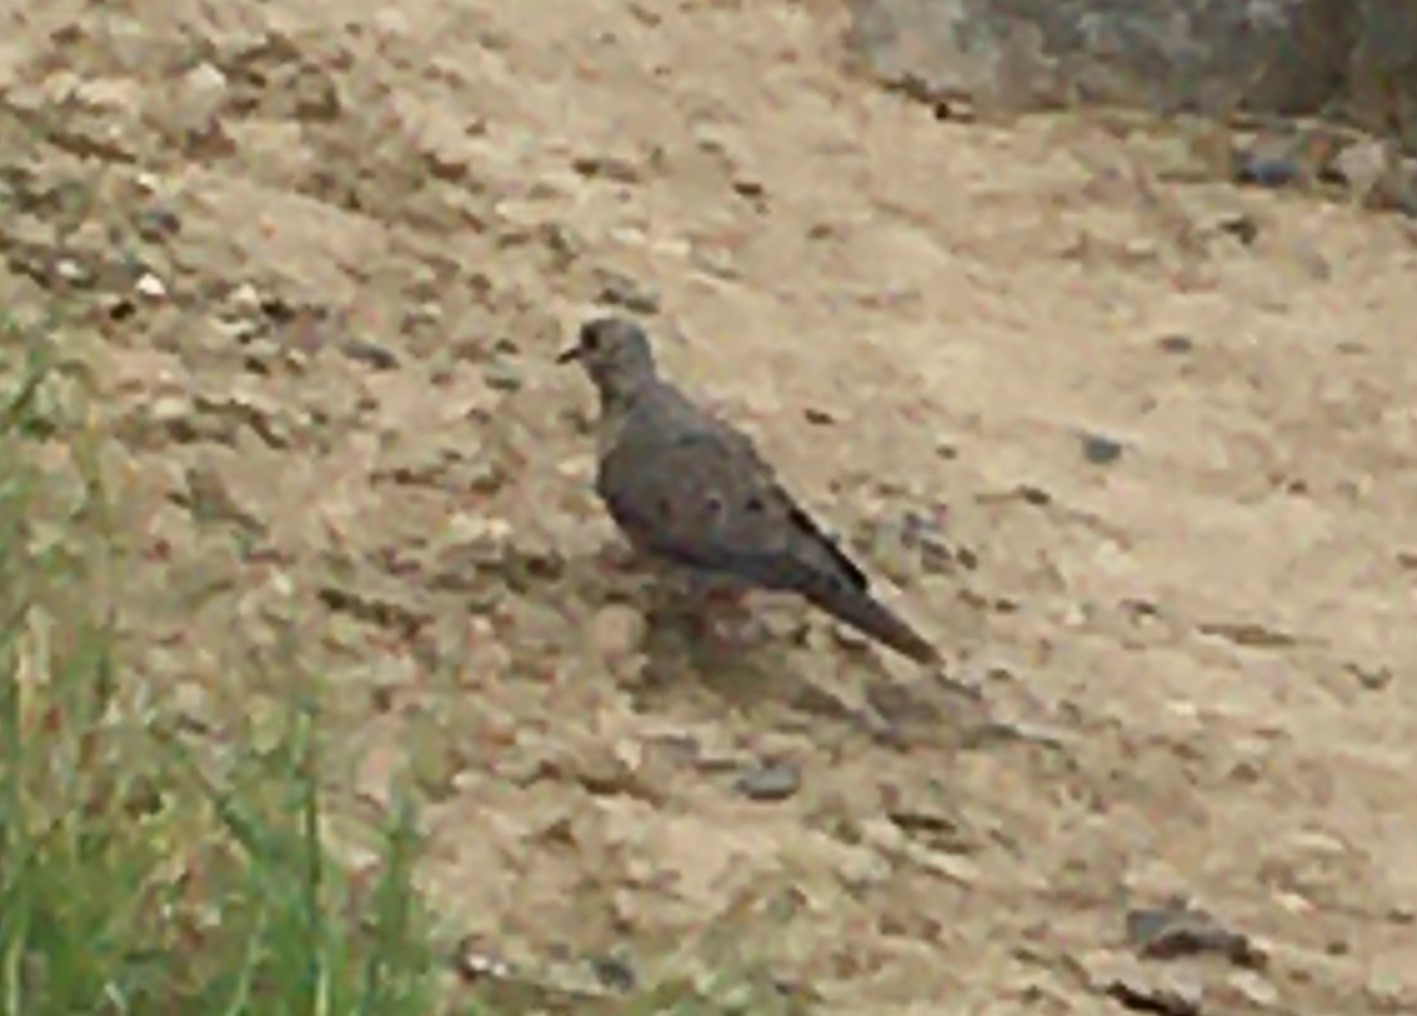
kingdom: Animalia
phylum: Chordata
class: Aves
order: Columbiformes
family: Columbidae
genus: Zenaida
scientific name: Zenaida macroura
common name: Mourning dove
